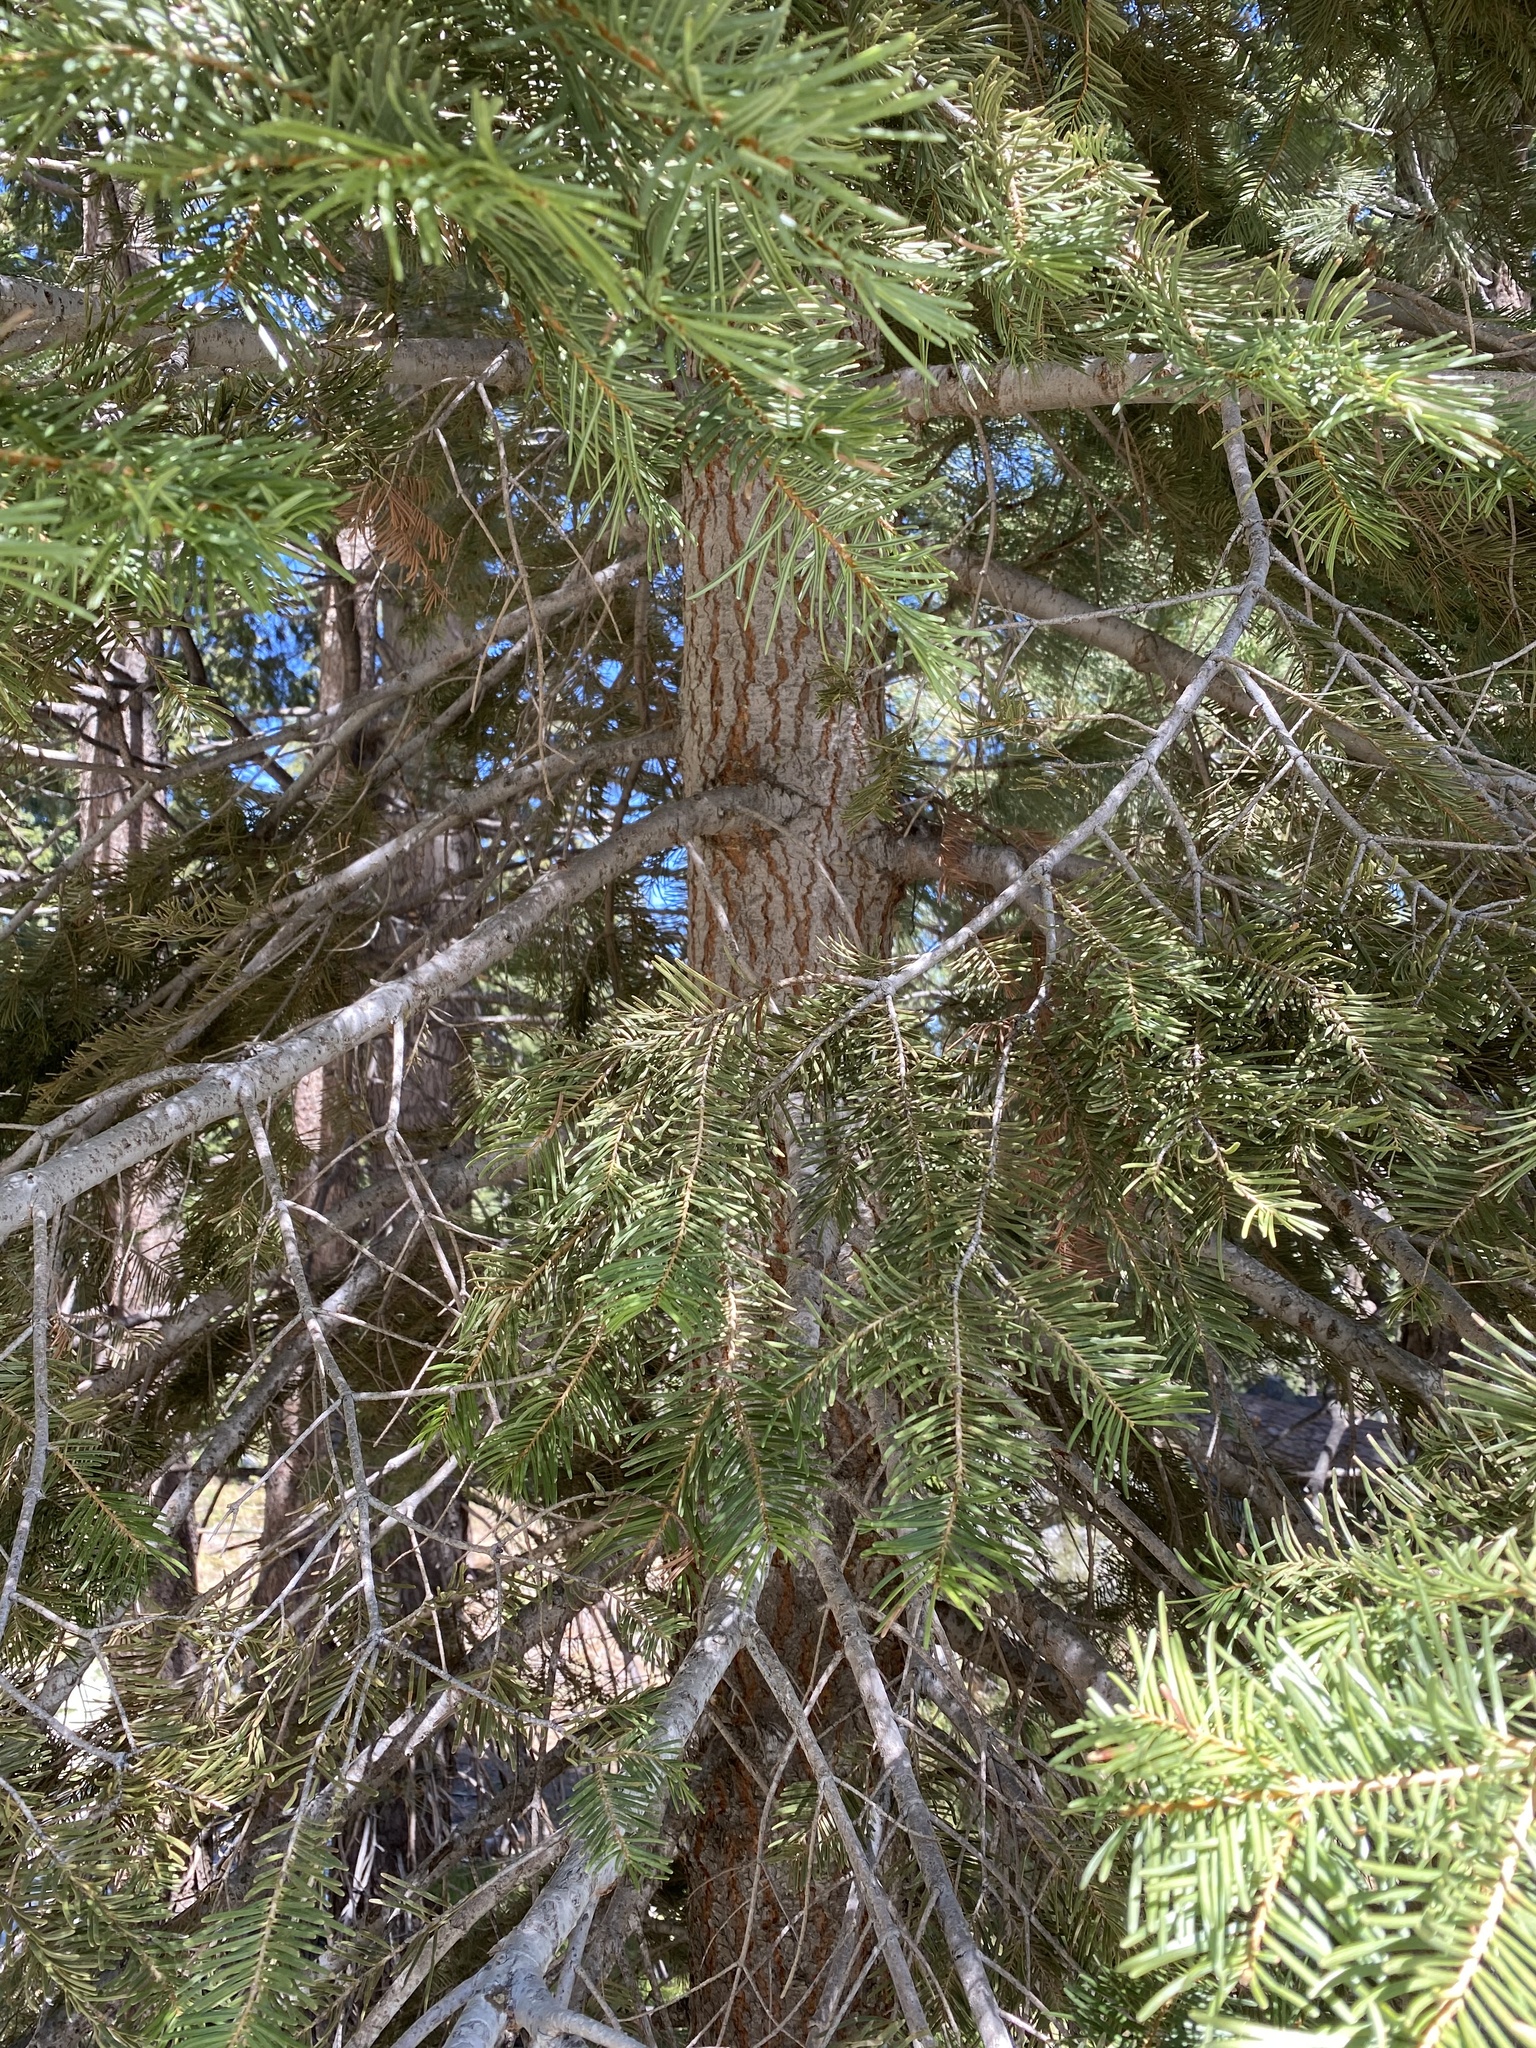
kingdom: Plantae
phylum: Tracheophyta
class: Pinopsida
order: Pinales
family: Pinaceae
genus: Abies
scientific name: Abies concolor
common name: Colorado fir
